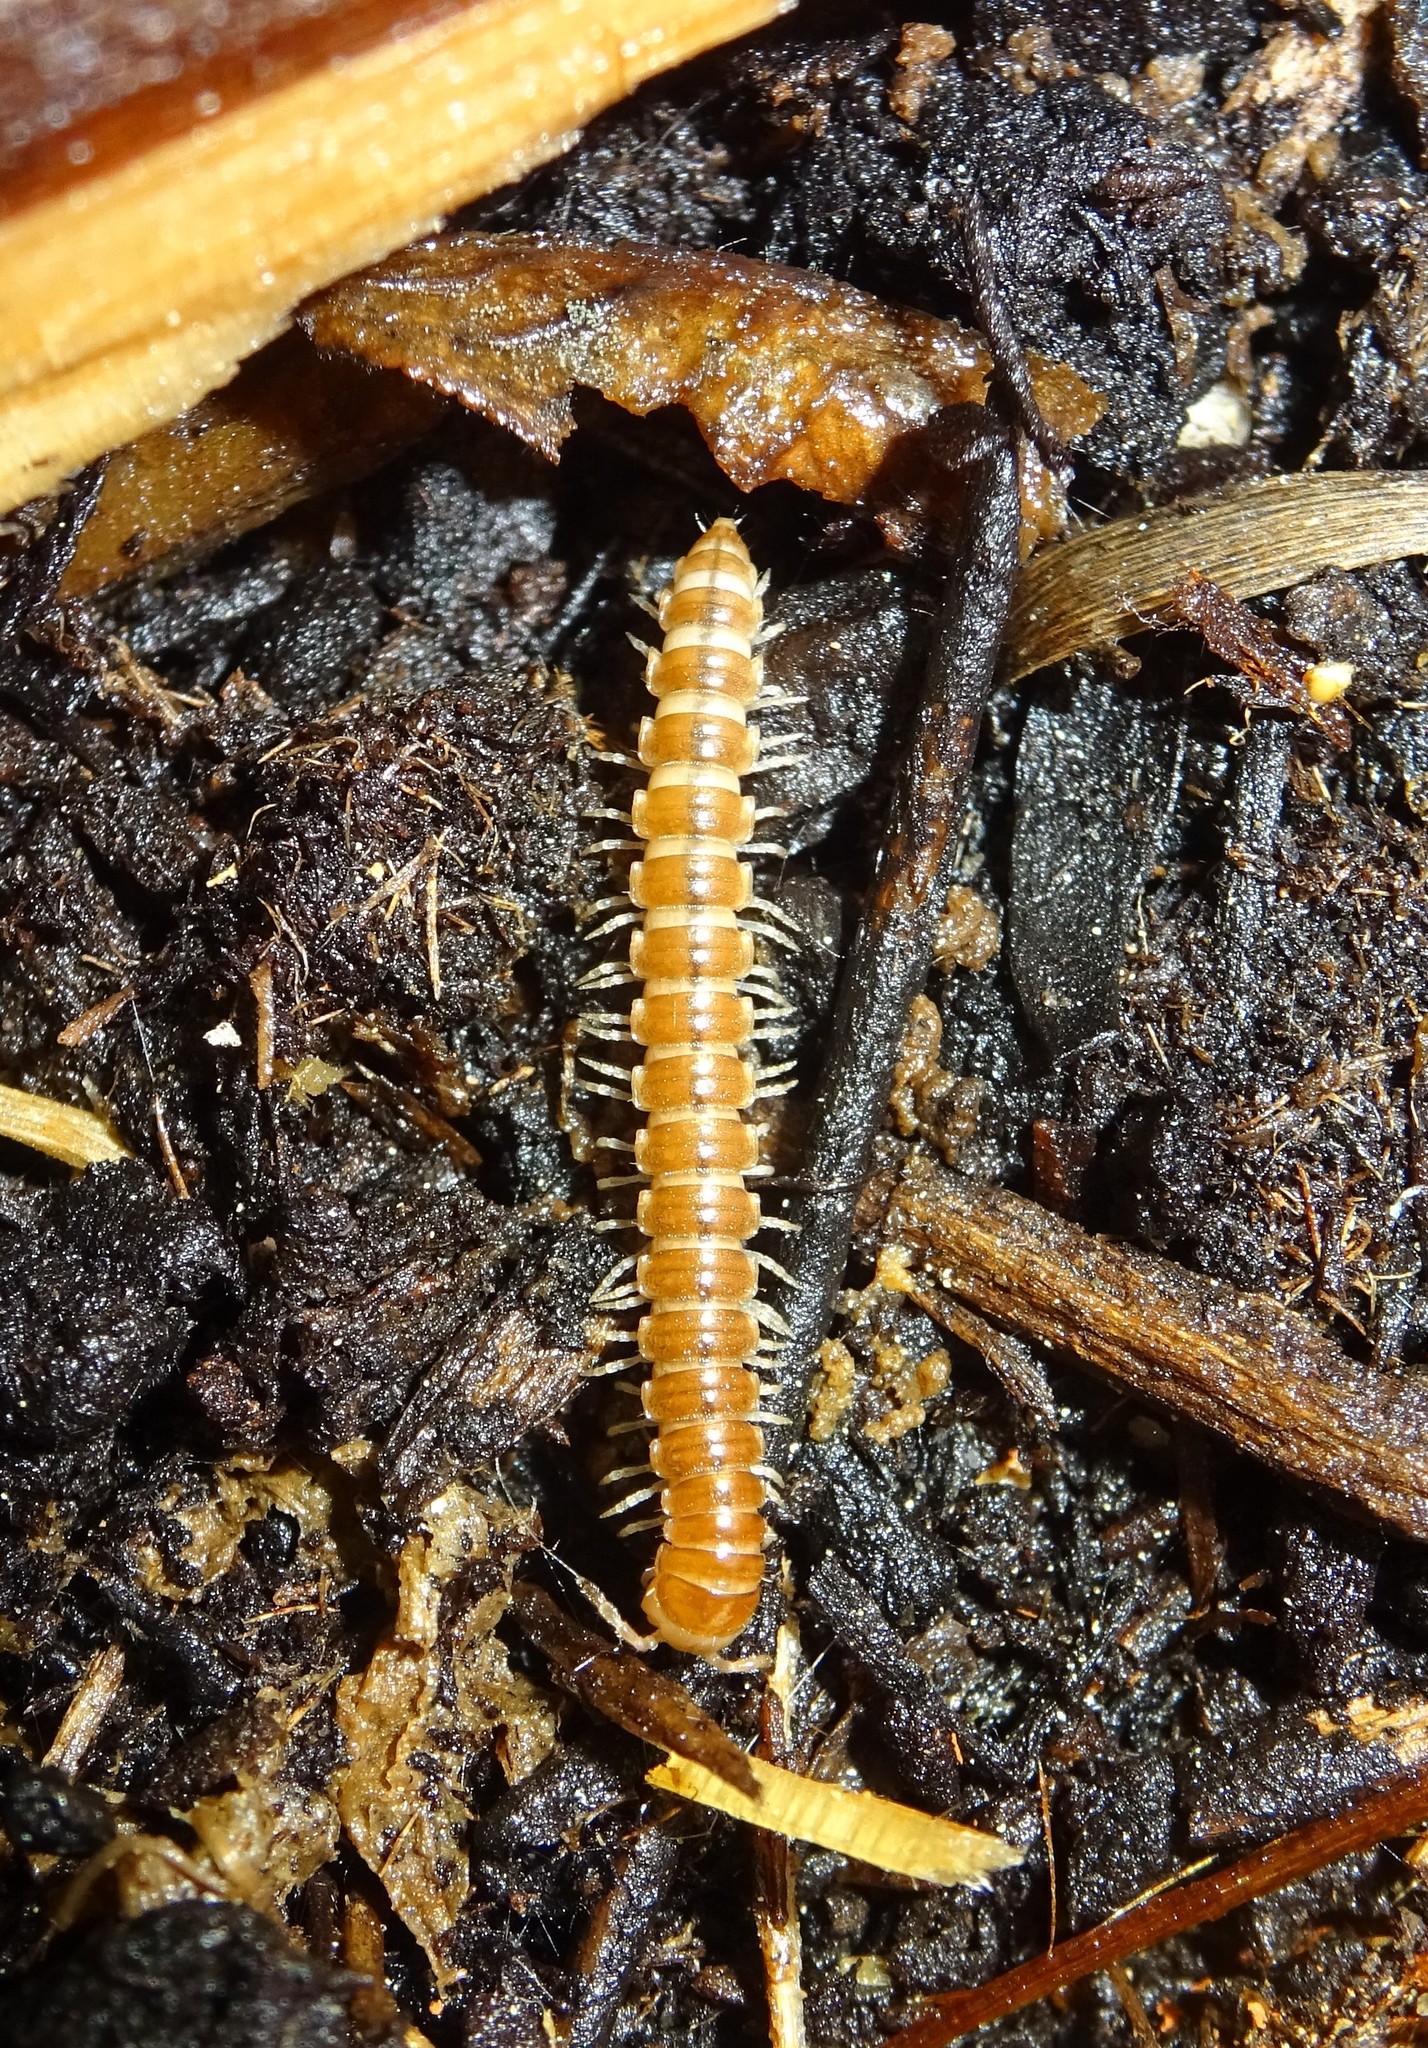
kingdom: Animalia
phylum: Arthropoda
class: Diplopoda
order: Polydesmida
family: Paradoxosomatidae
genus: Oxidus
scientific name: Oxidus gracilis
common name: Greenhouse millipede
